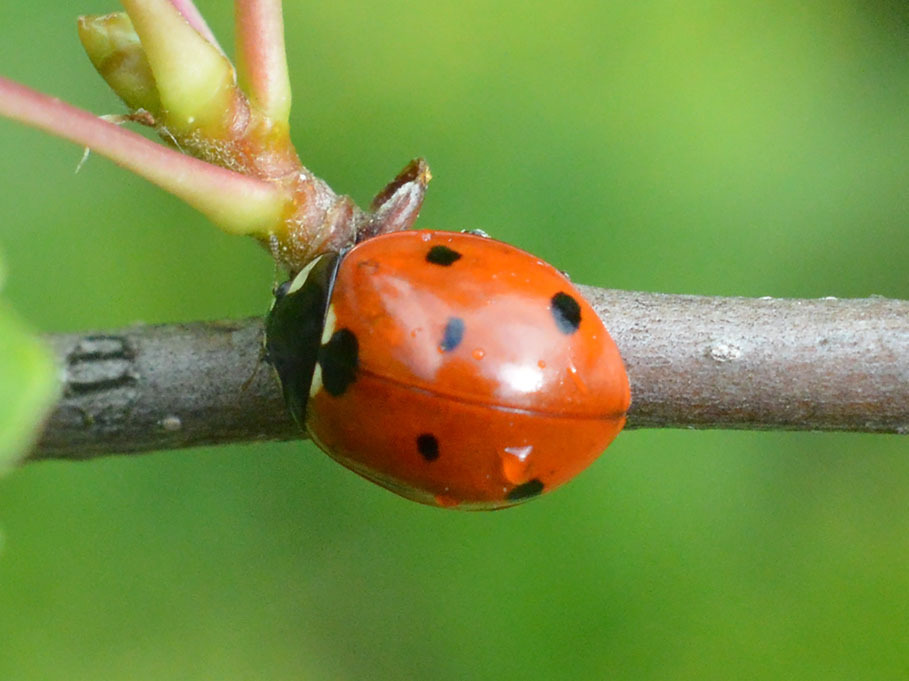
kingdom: Animalia
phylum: Arthropoda
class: Insecta
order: Coleoptera
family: Coccinellidae
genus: Coccinella
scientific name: Coccinella septempunctata
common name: Sevenspotted lady beetle
